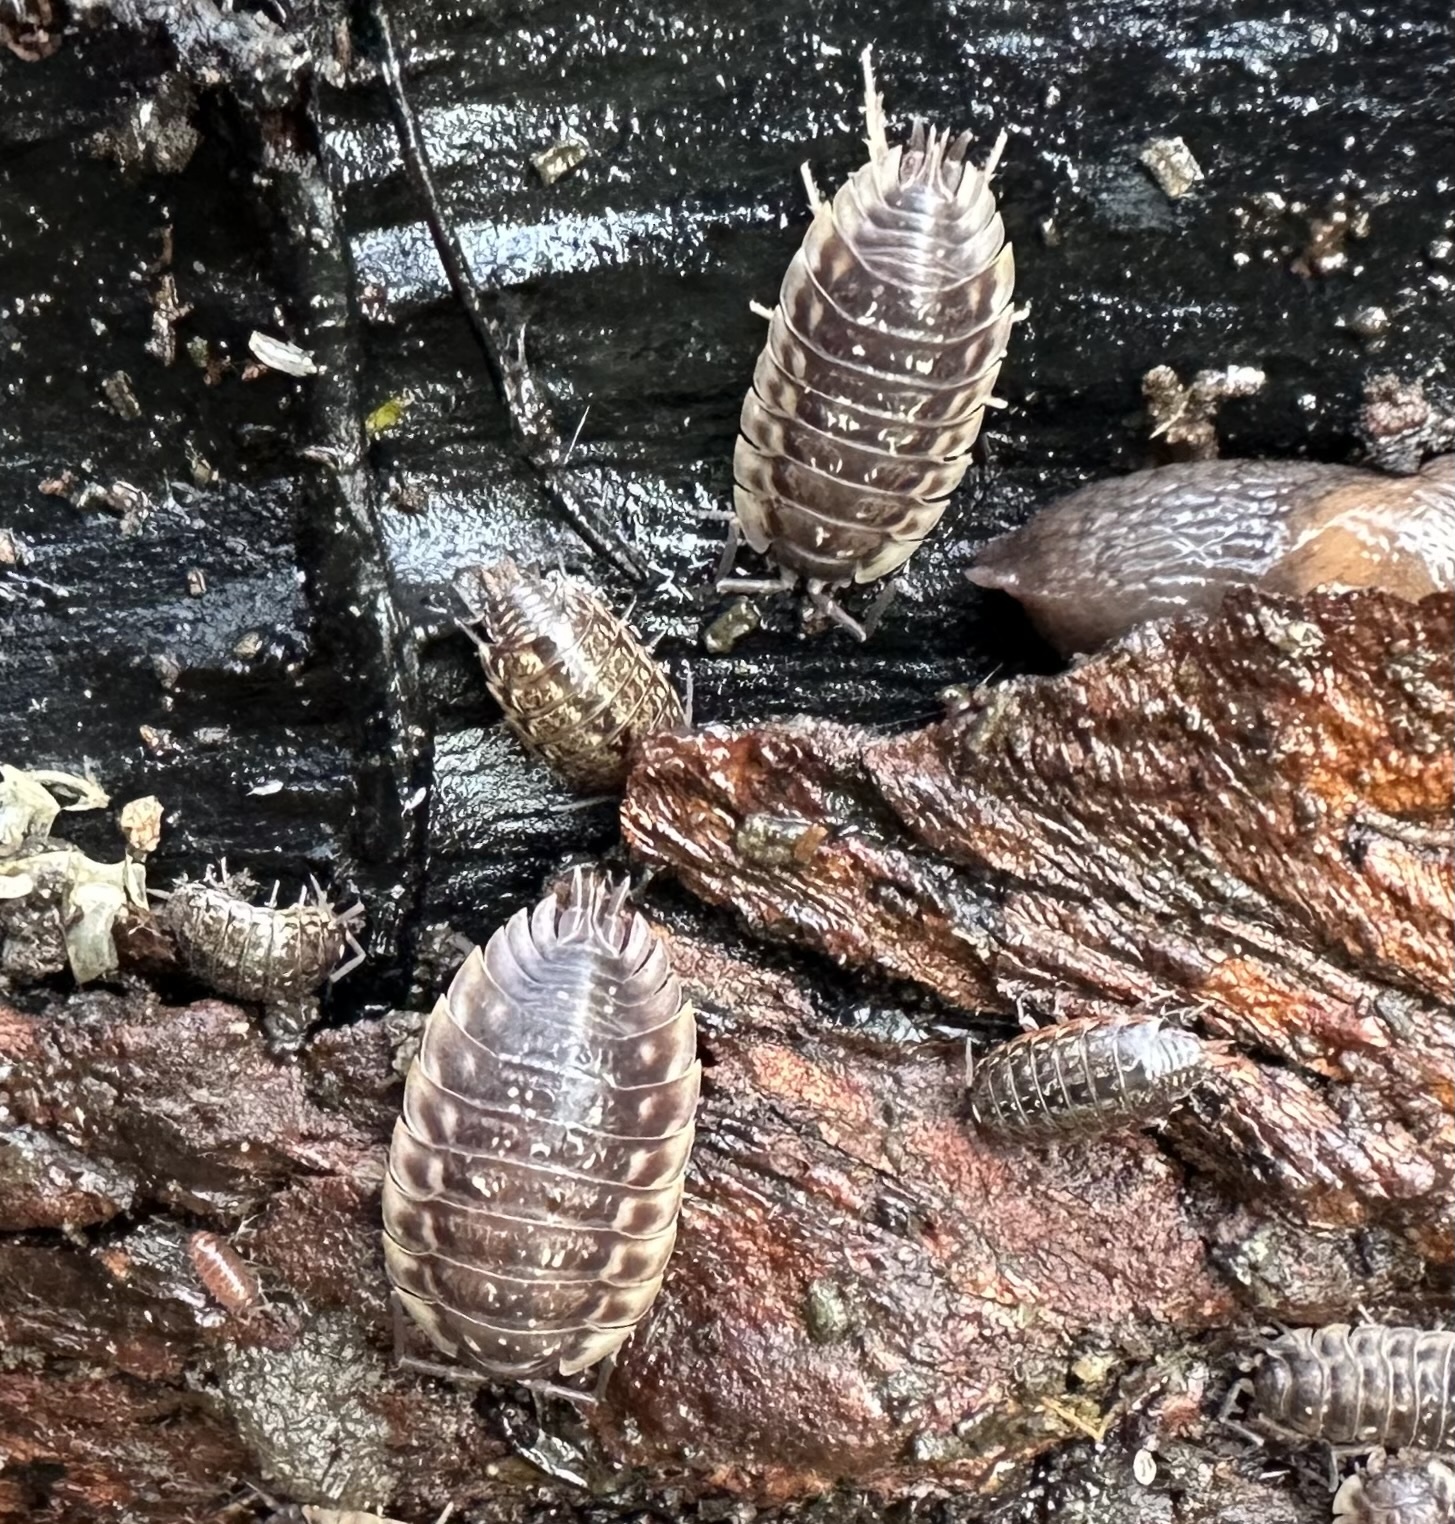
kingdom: Animalia
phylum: Arthropoda
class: Malacostraca
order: Isopoda
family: Philosciidae
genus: Philoscia
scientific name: Philoscia muscorum
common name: Common striped woodlouse
